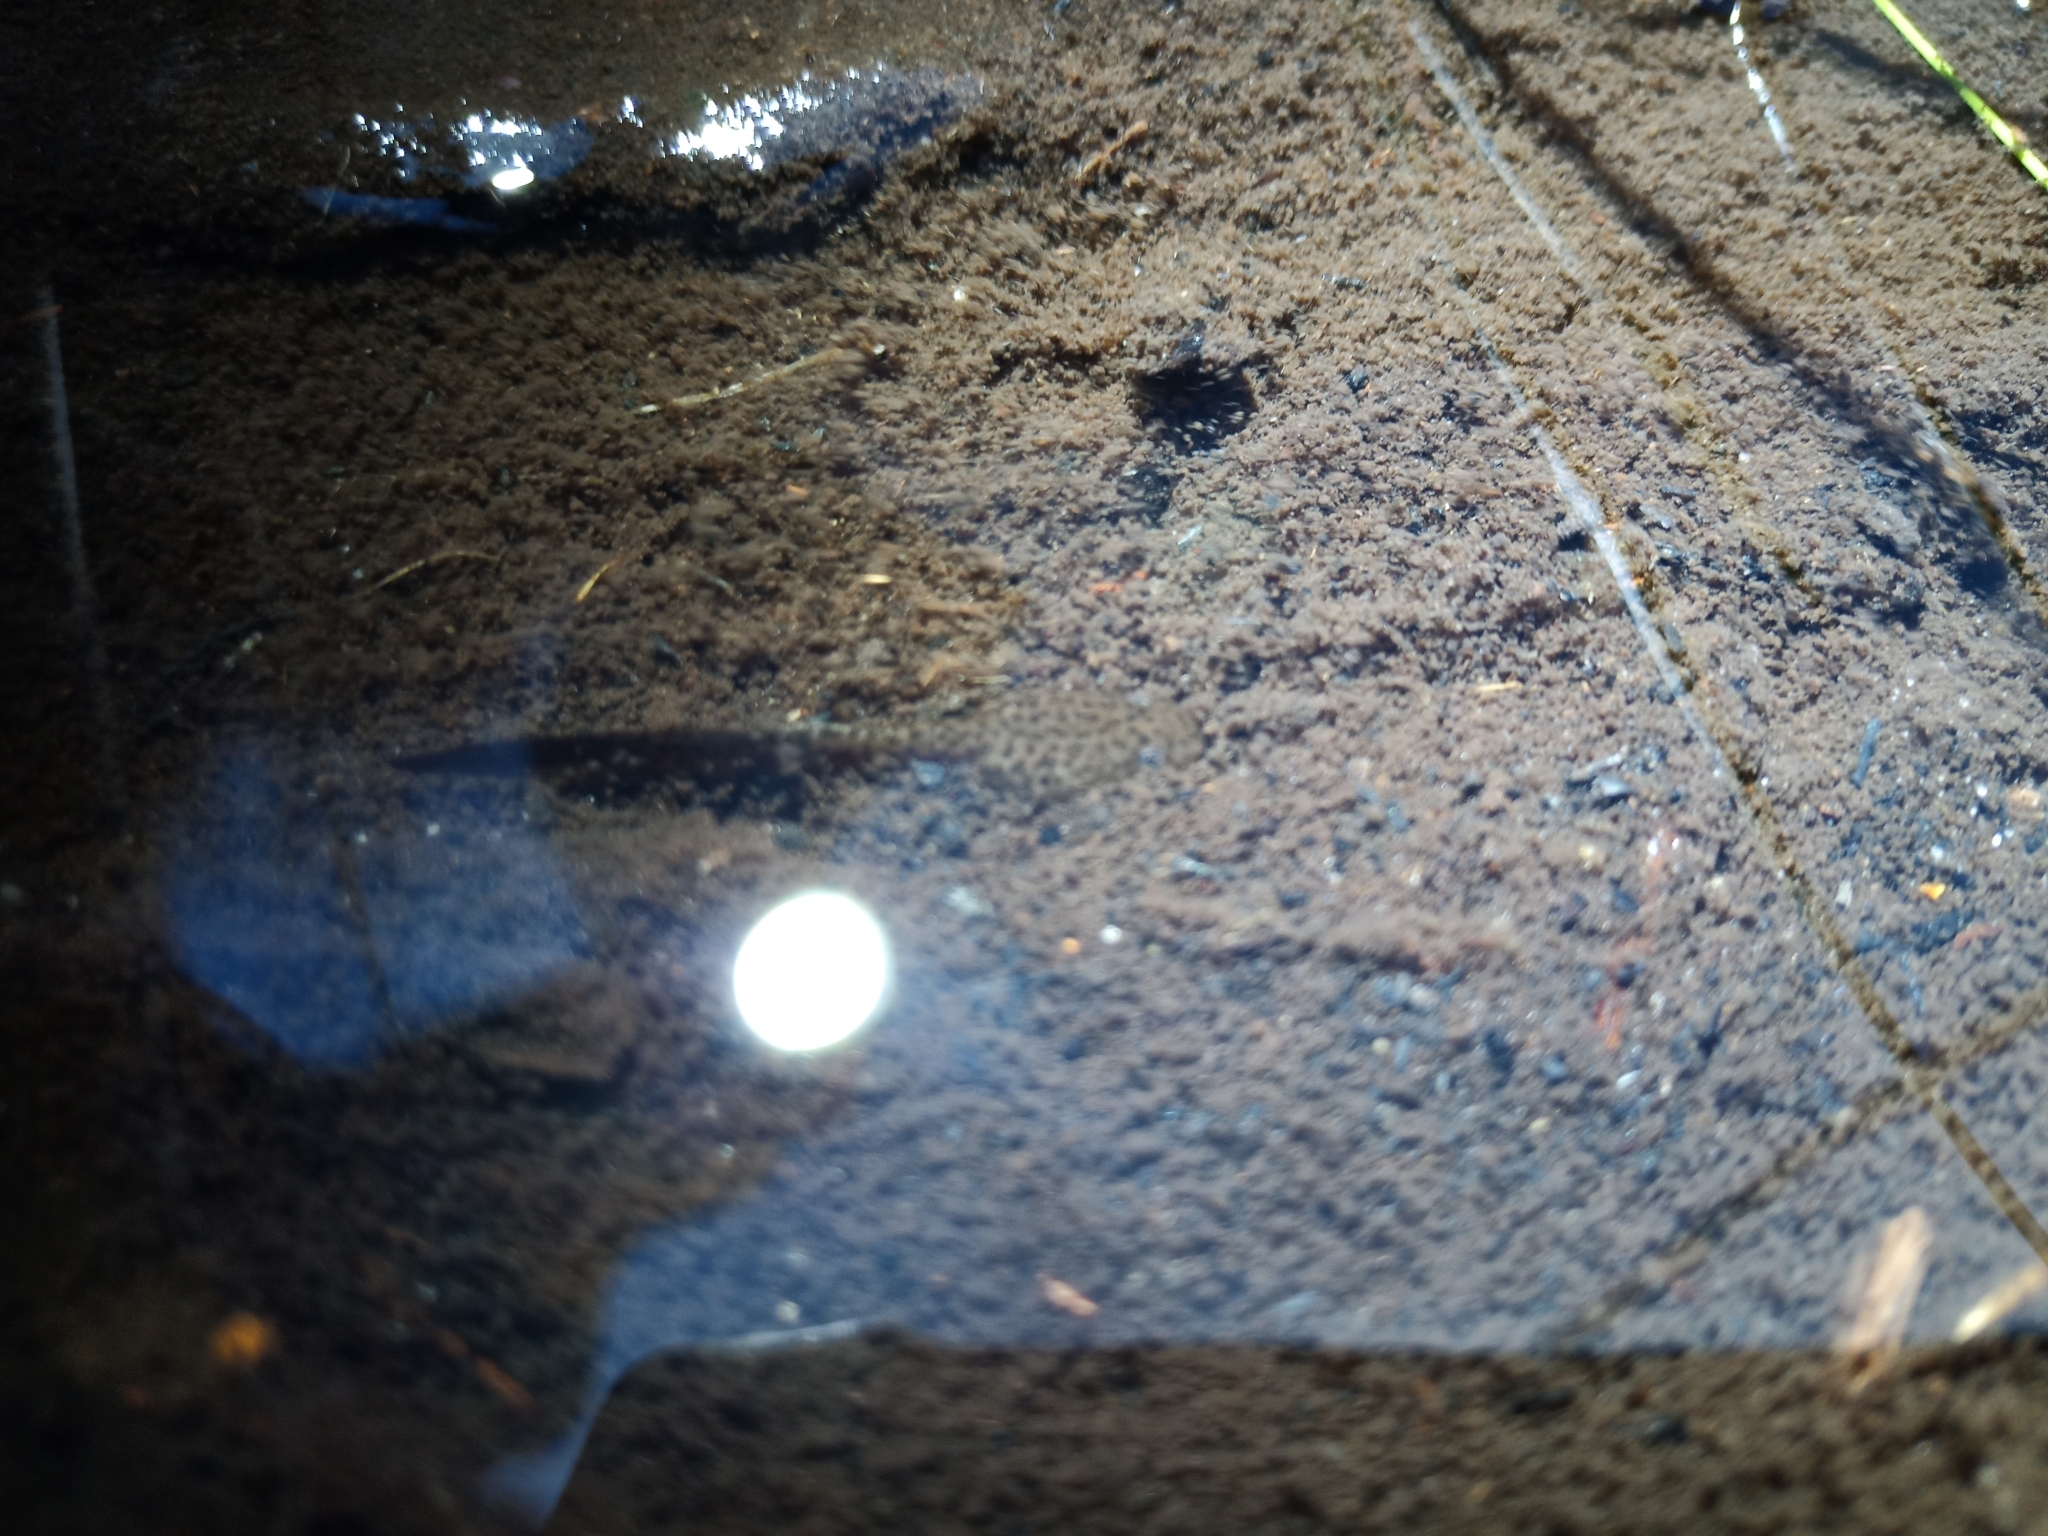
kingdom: Animalia
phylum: Chordata
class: Amphibia
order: Anura
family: Pyxicephalidae
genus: Poyntonia
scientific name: Poyntonia paludicola
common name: Montane marsh frog
